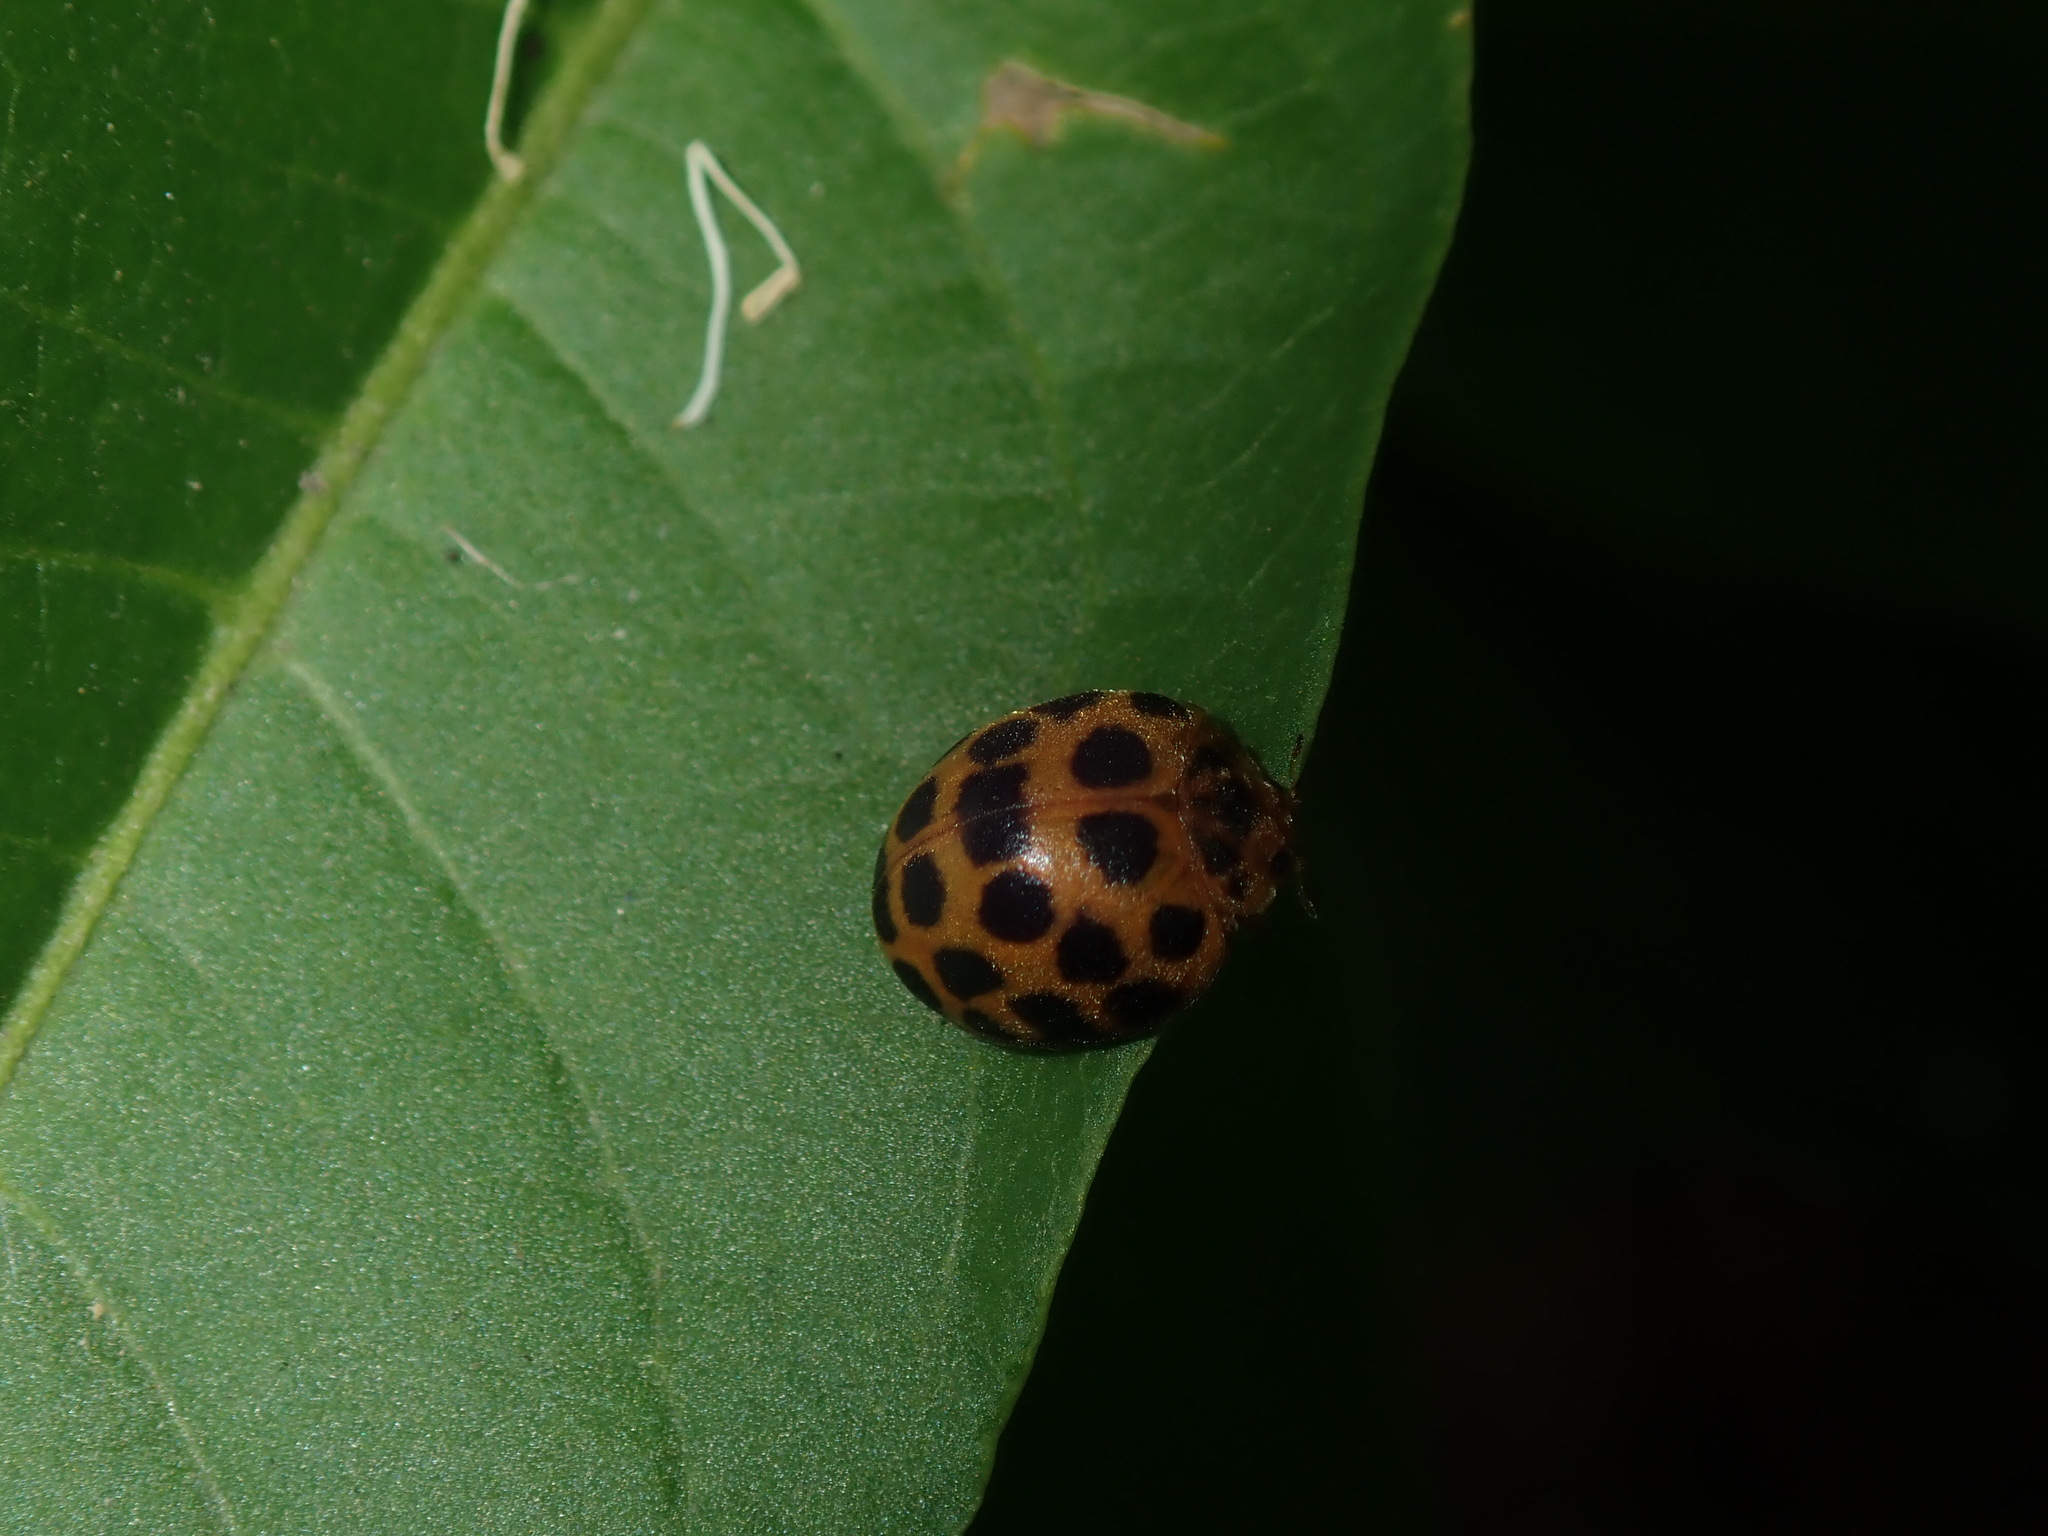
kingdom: Animalia
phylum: Arthropoda
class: Insecta
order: Coleoptera
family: Coccinellidae
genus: Henosepilachna
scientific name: Henosepilachna vigintioctopunctata
